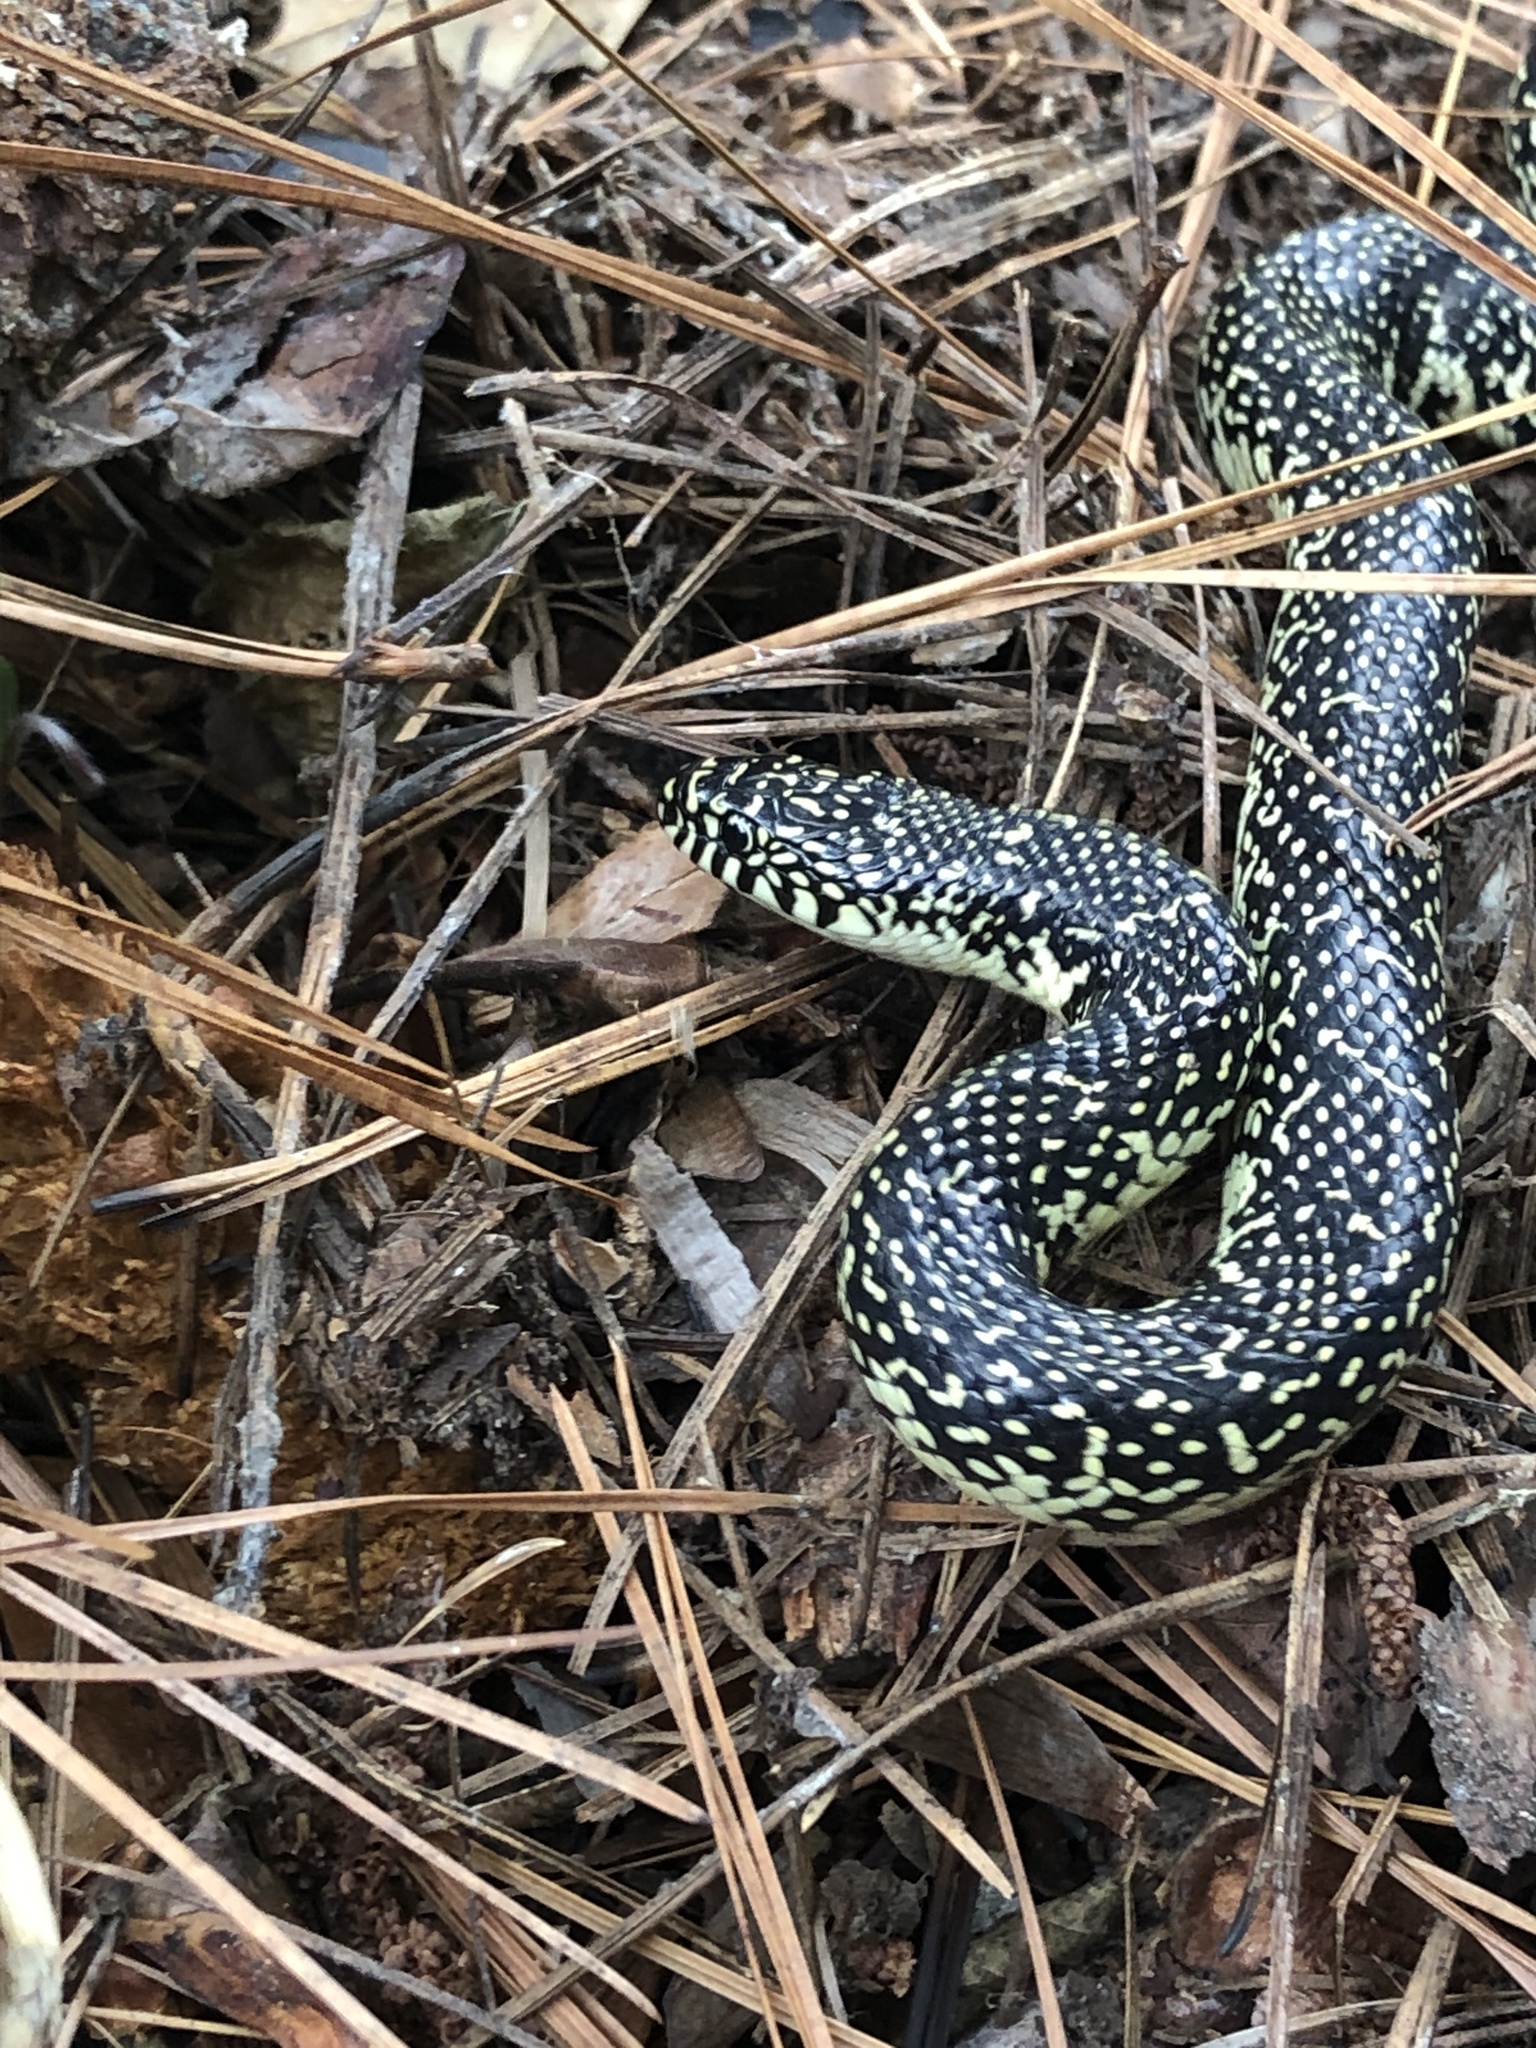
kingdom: Animalia
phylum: Chordata
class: Squamata
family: Colubridae
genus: Lampropeltis
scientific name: Lampropeltis holbrooki
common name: Speckled kingsnake
